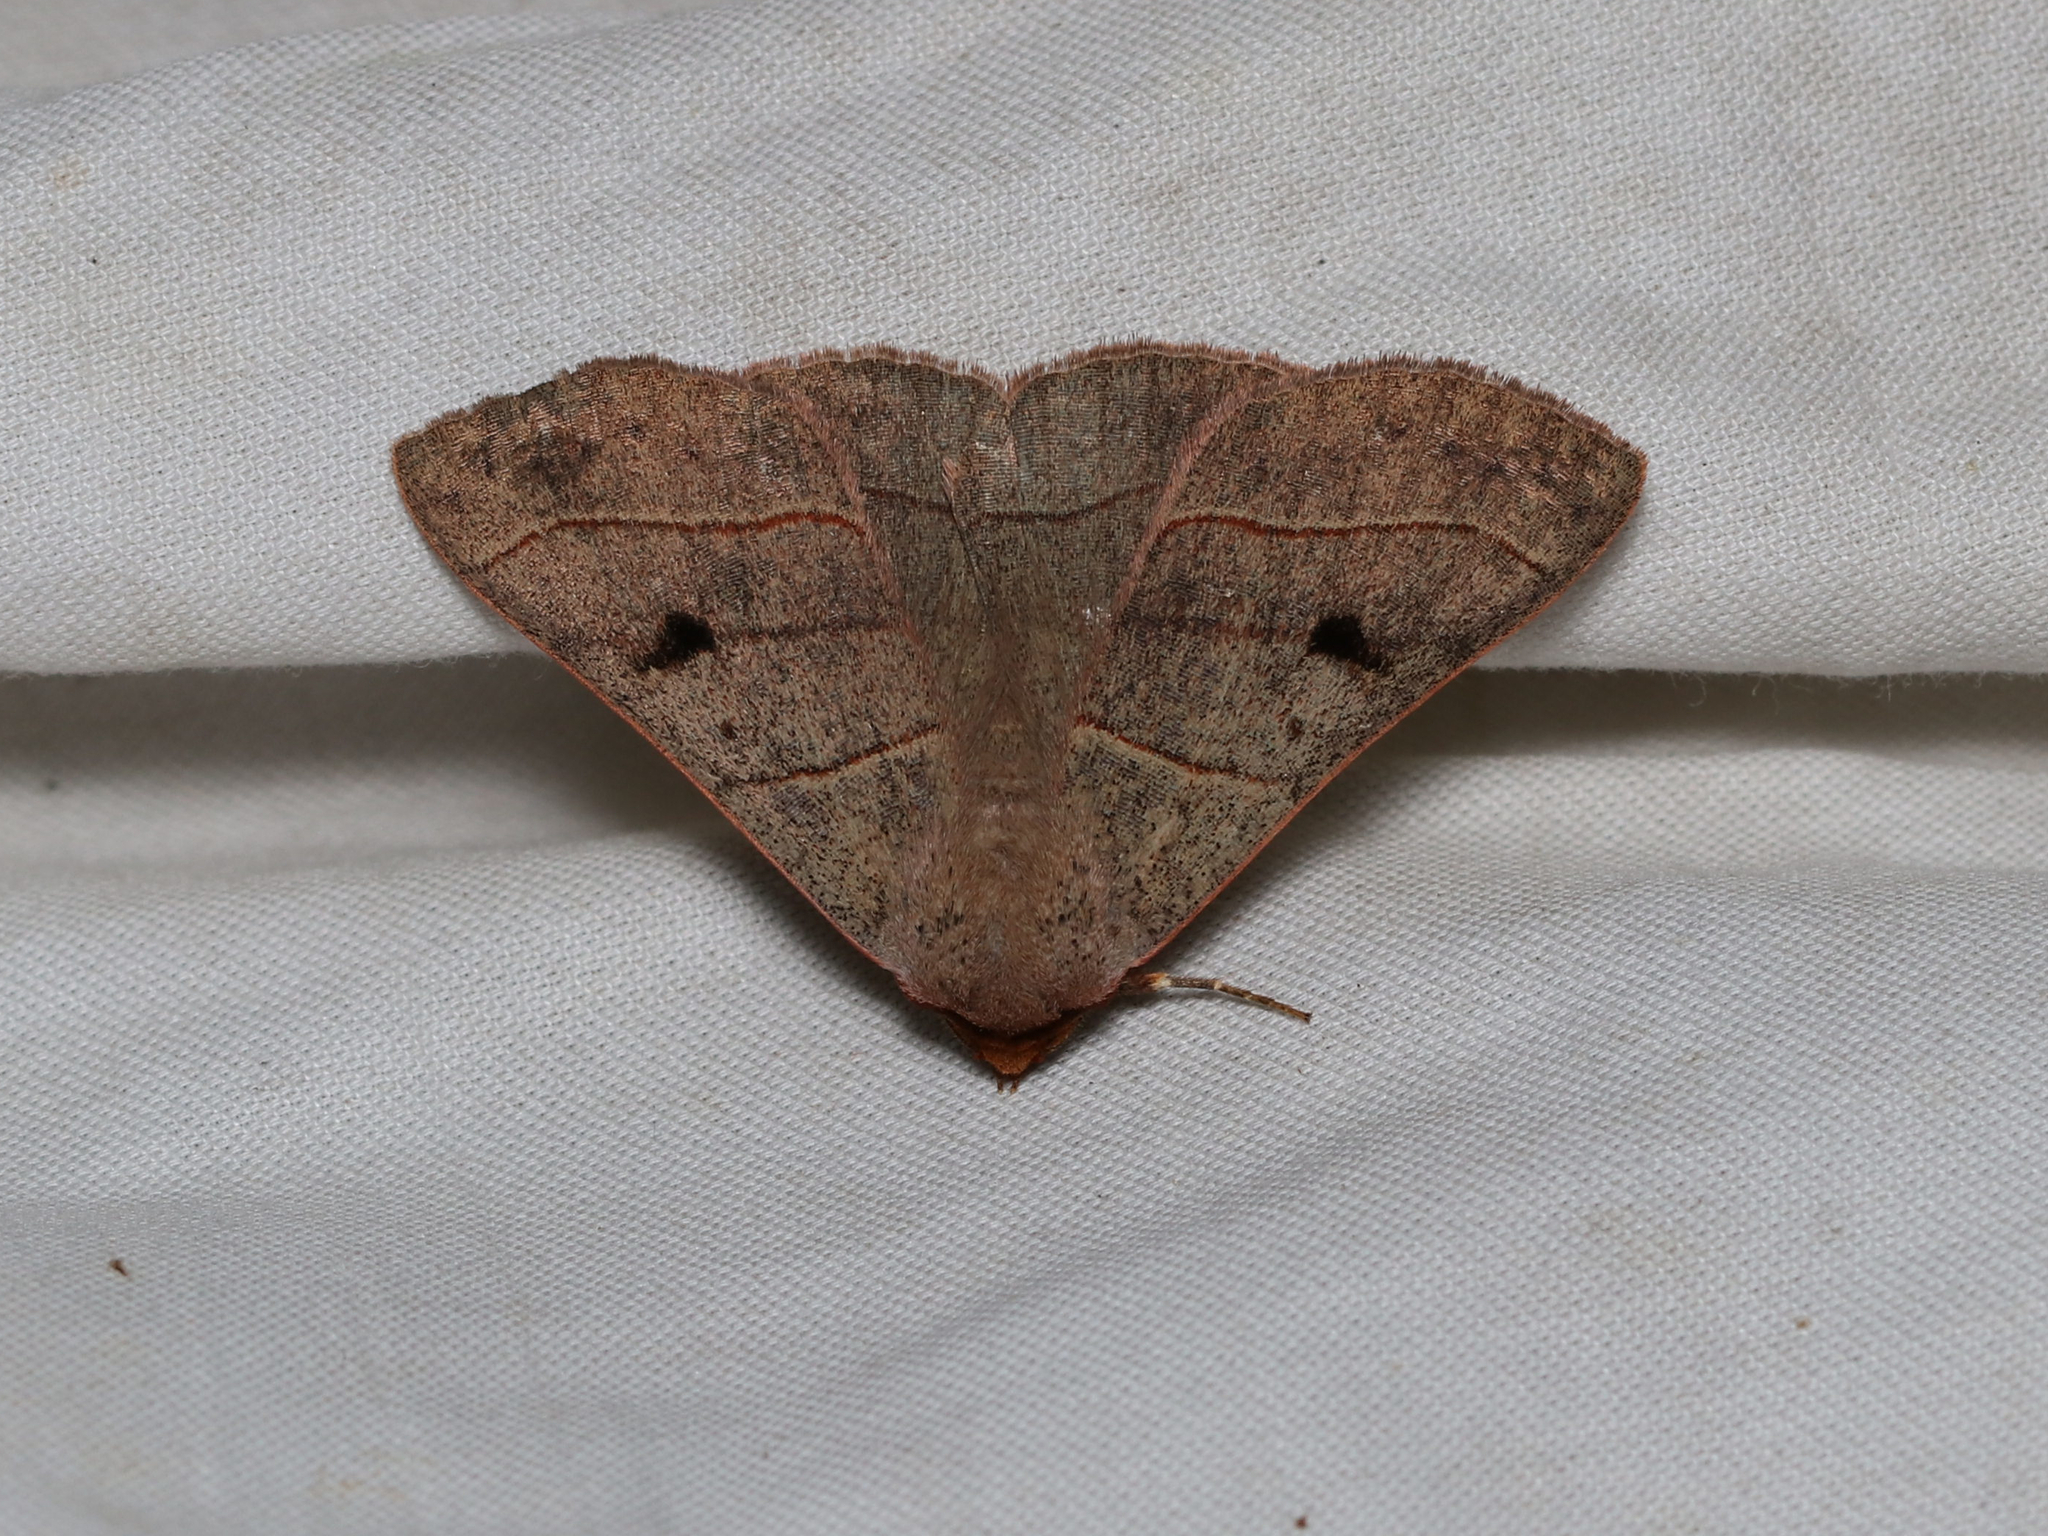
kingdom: Animalia
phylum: Arthropoda
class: Insecta
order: Lepidoptera
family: Erebidae
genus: Panopoda
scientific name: Panopoda rufimargo
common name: Red-lined panopoda moth
